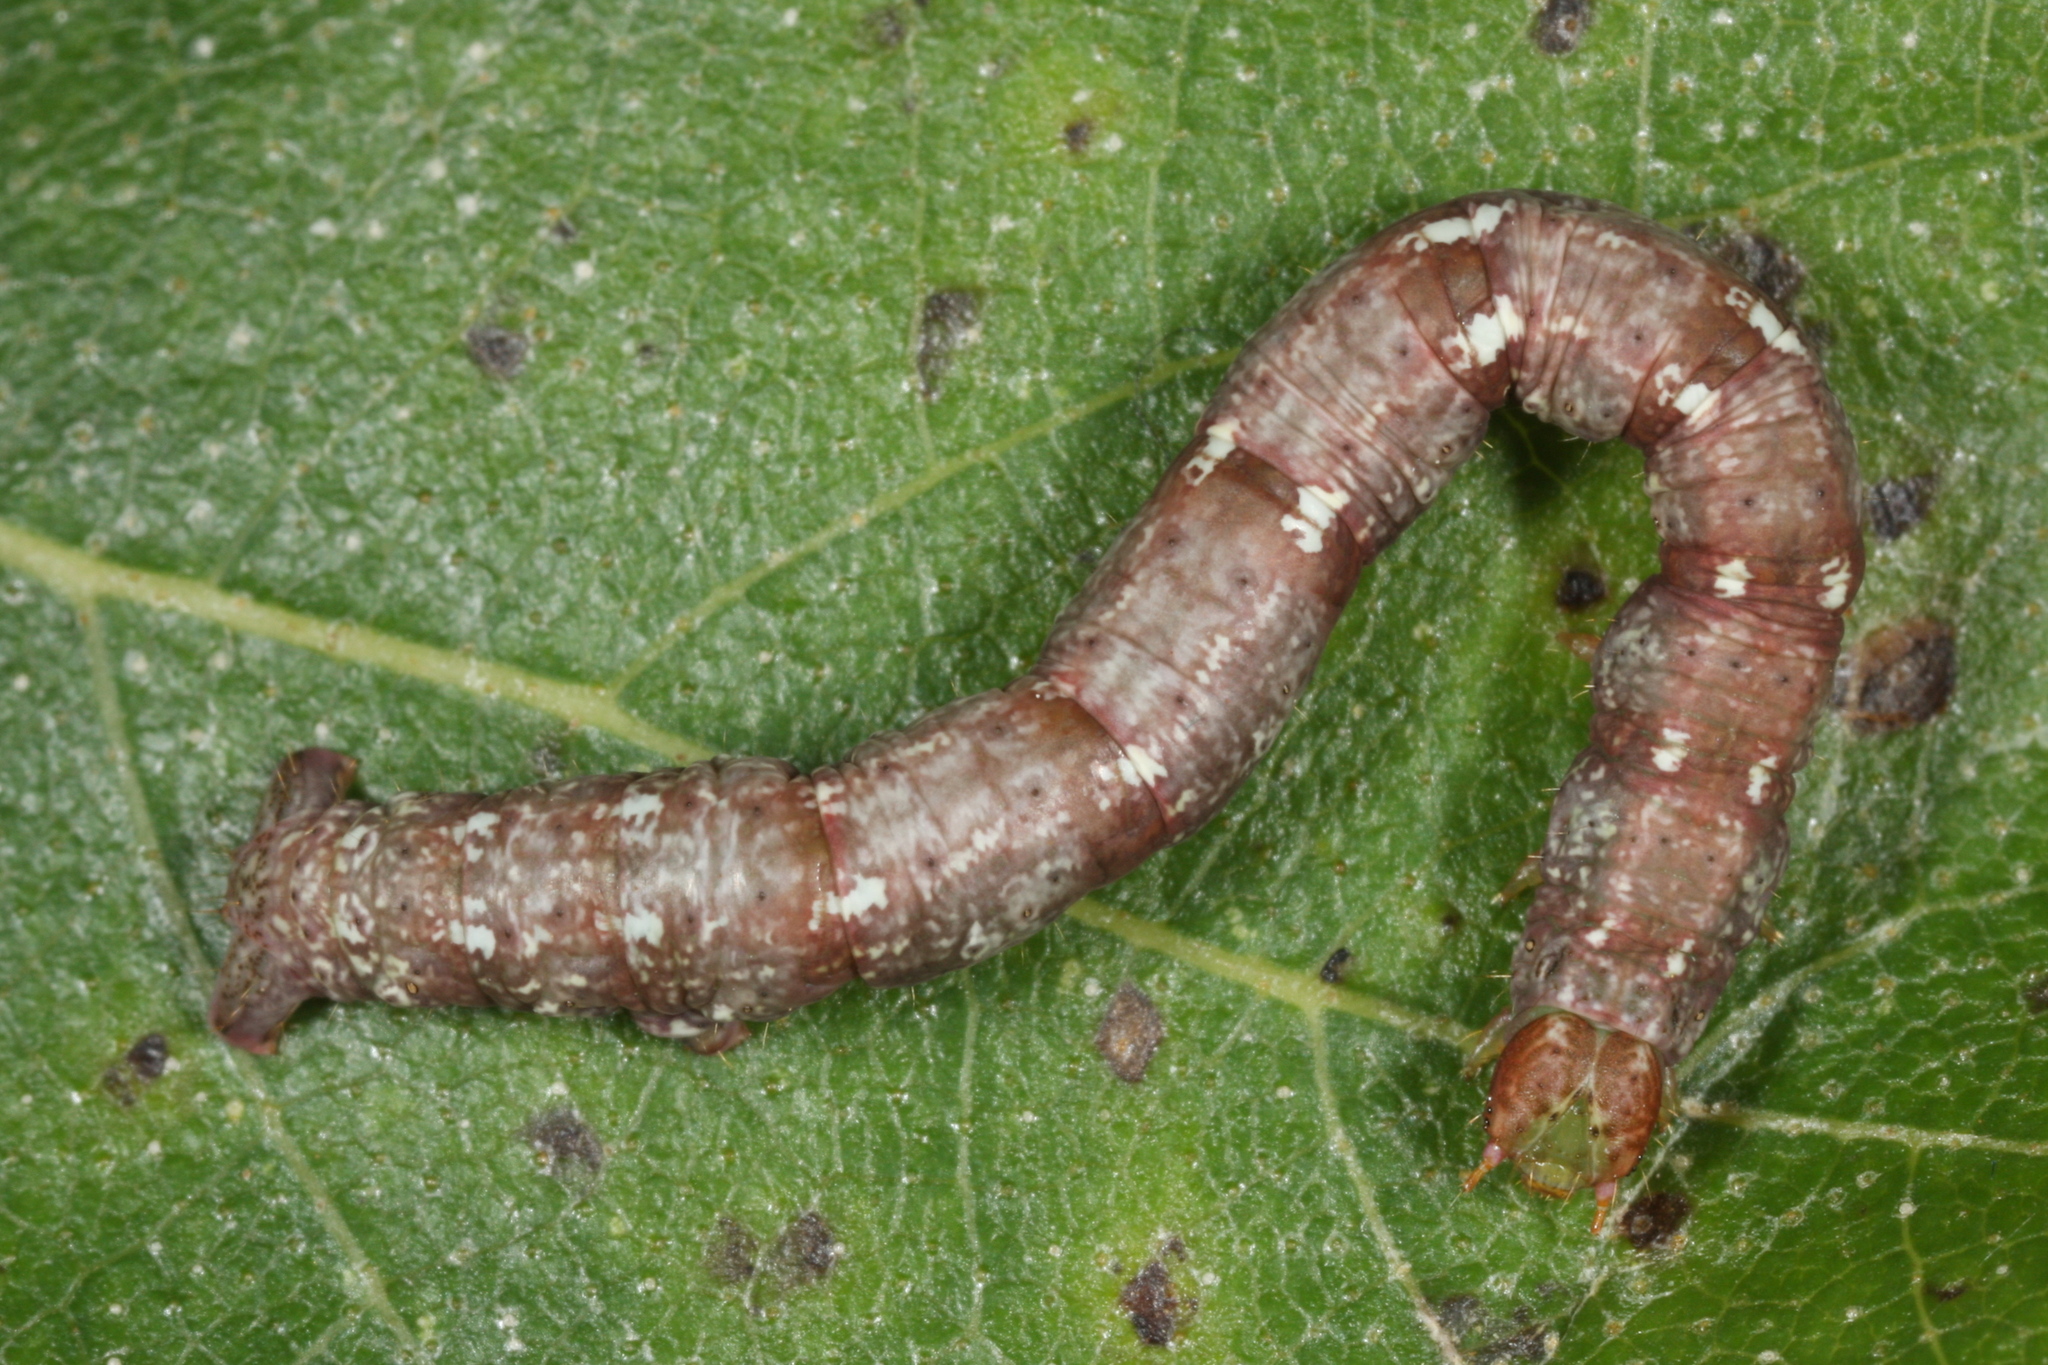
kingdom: Animalia
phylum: Arthropoda
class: Insecta
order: Lepidoptera
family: Geometridae
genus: Cabera
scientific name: Cabera pusaria
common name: Common white wave
